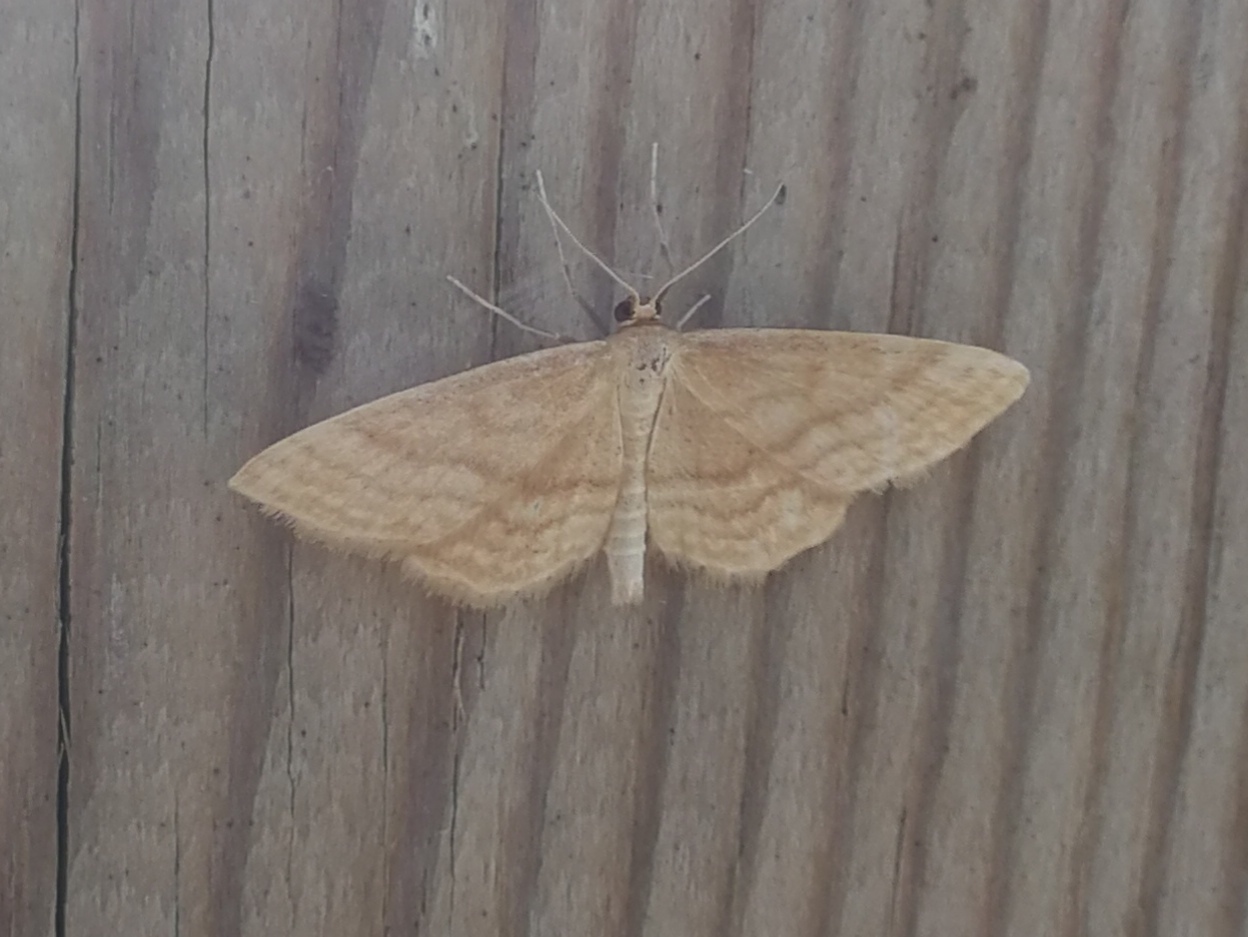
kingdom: Animalia
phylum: Arthropoda
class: Insecta
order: Lepidoptera
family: Geometridae
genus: Idaea
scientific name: Idaea ochrata
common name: Bright wave
